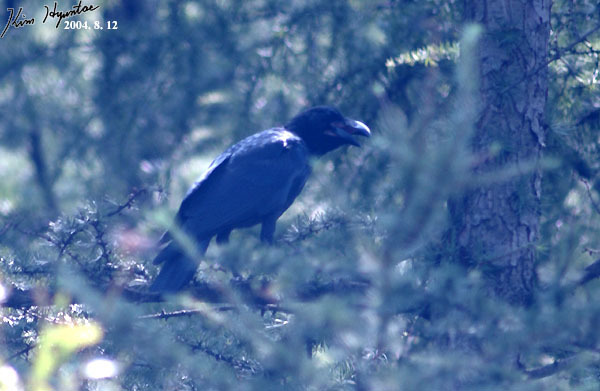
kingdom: Animalia
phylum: Chordata
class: Aves
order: Passeriformes
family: Corvidae
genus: Corvus
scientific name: Corvus macrorhynchos
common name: Large-billed crow
